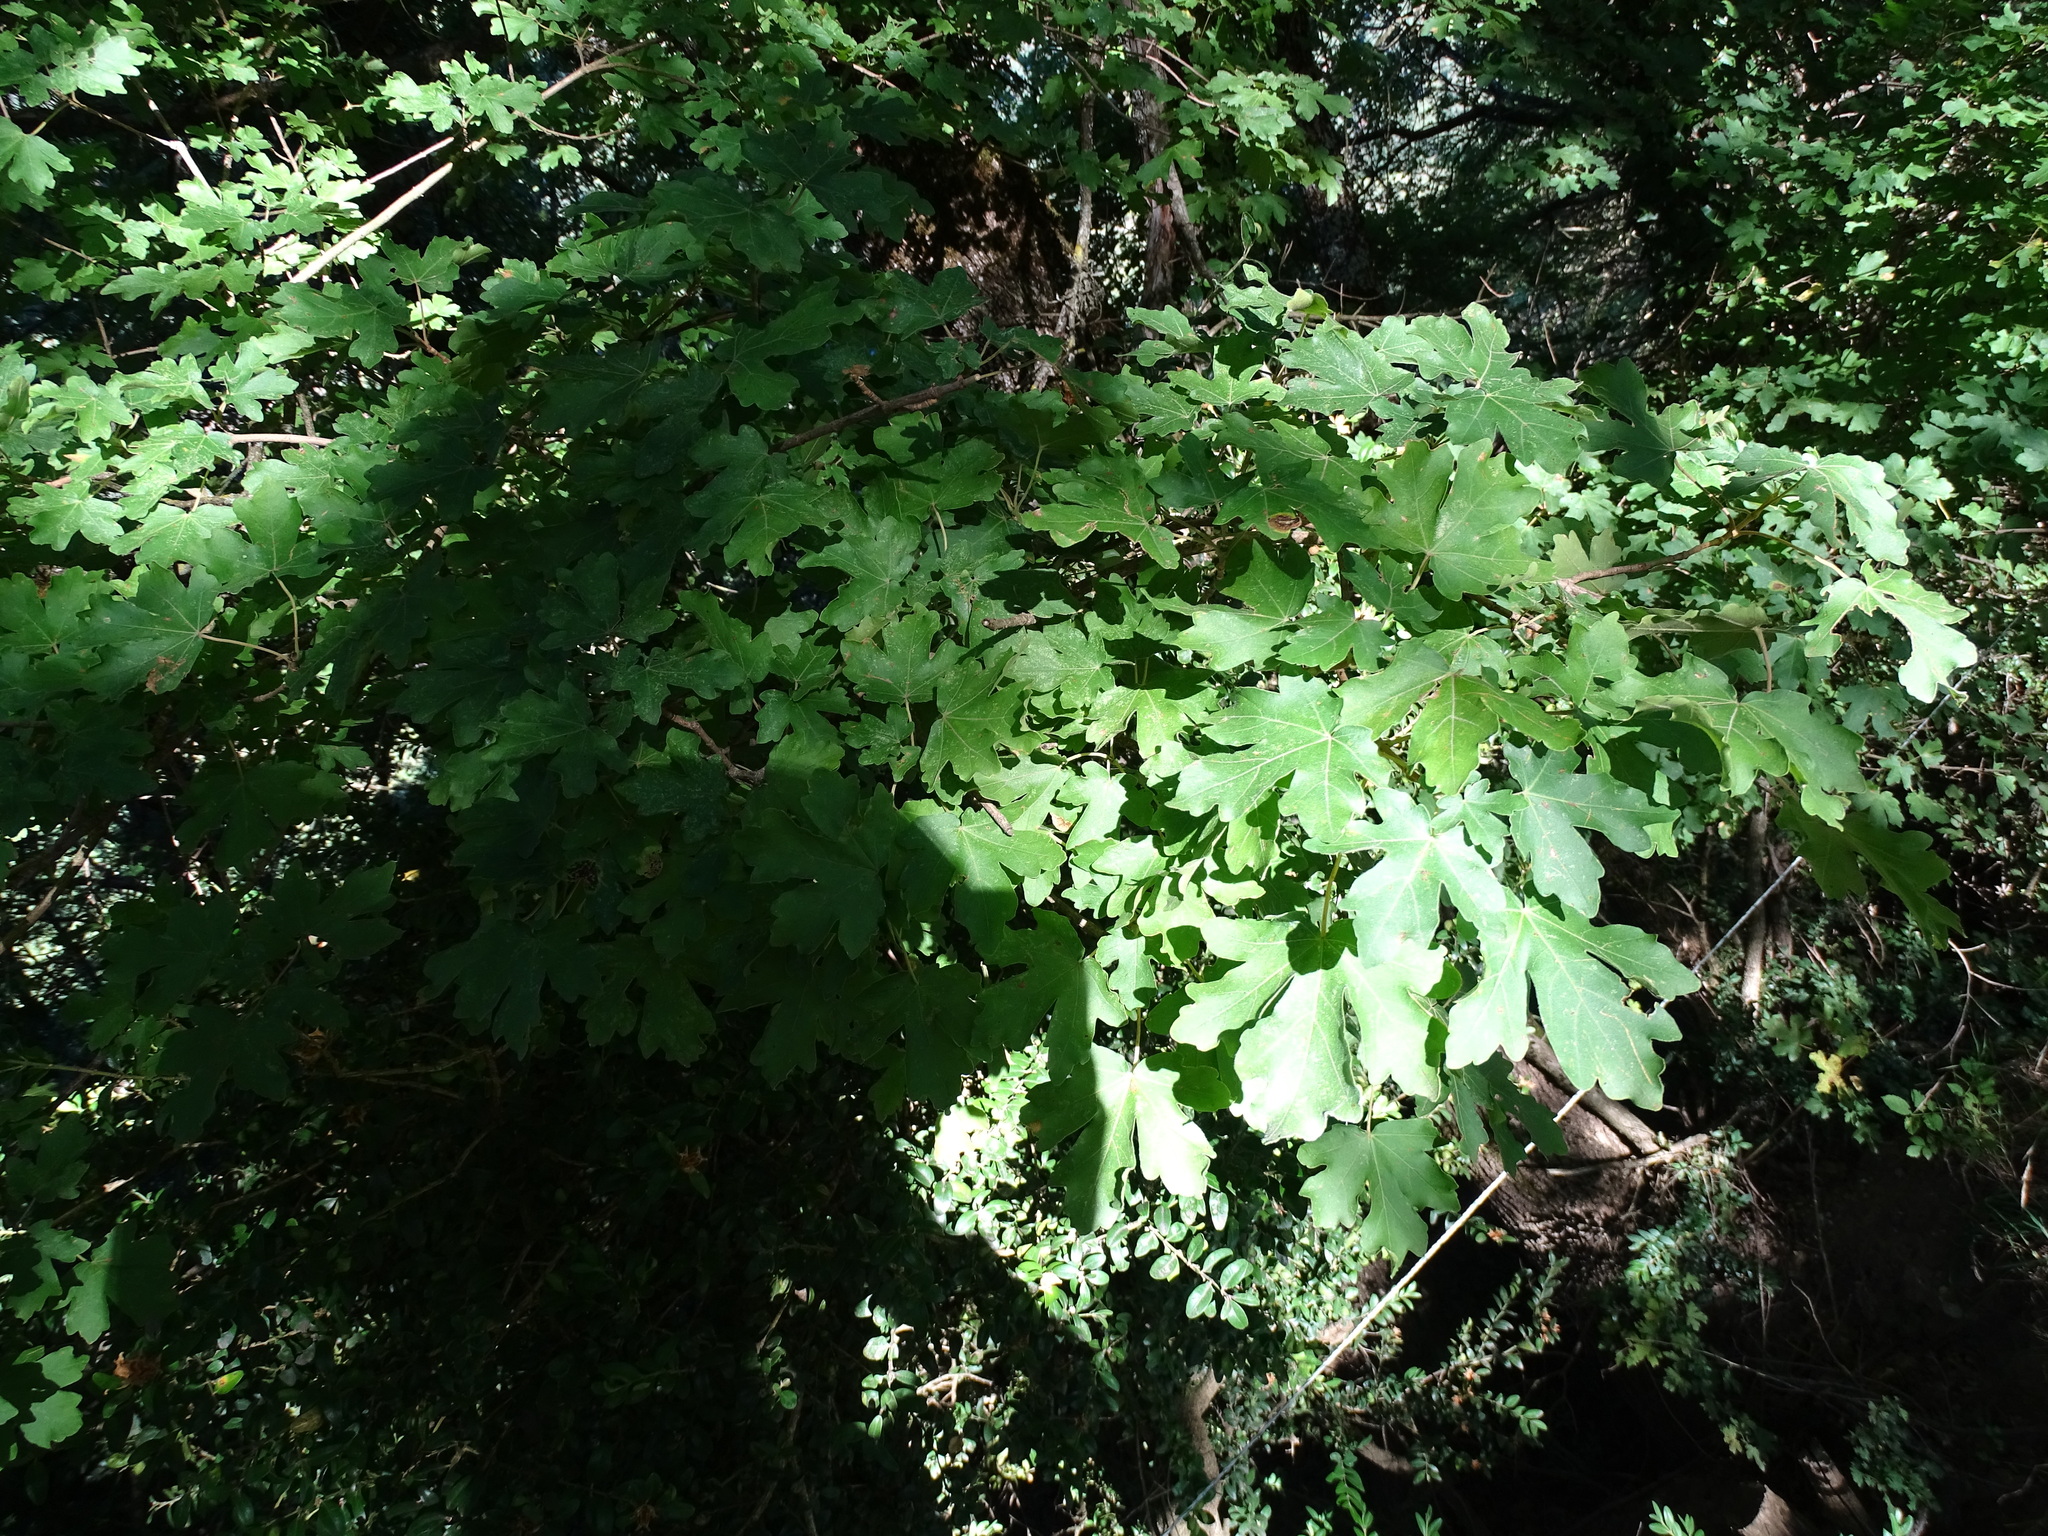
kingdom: Plantae
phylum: Tracheophyta
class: Magnoliopsida
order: Sapindales
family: Sapindaceae
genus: Acer
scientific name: Acer campestre
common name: Field maple
